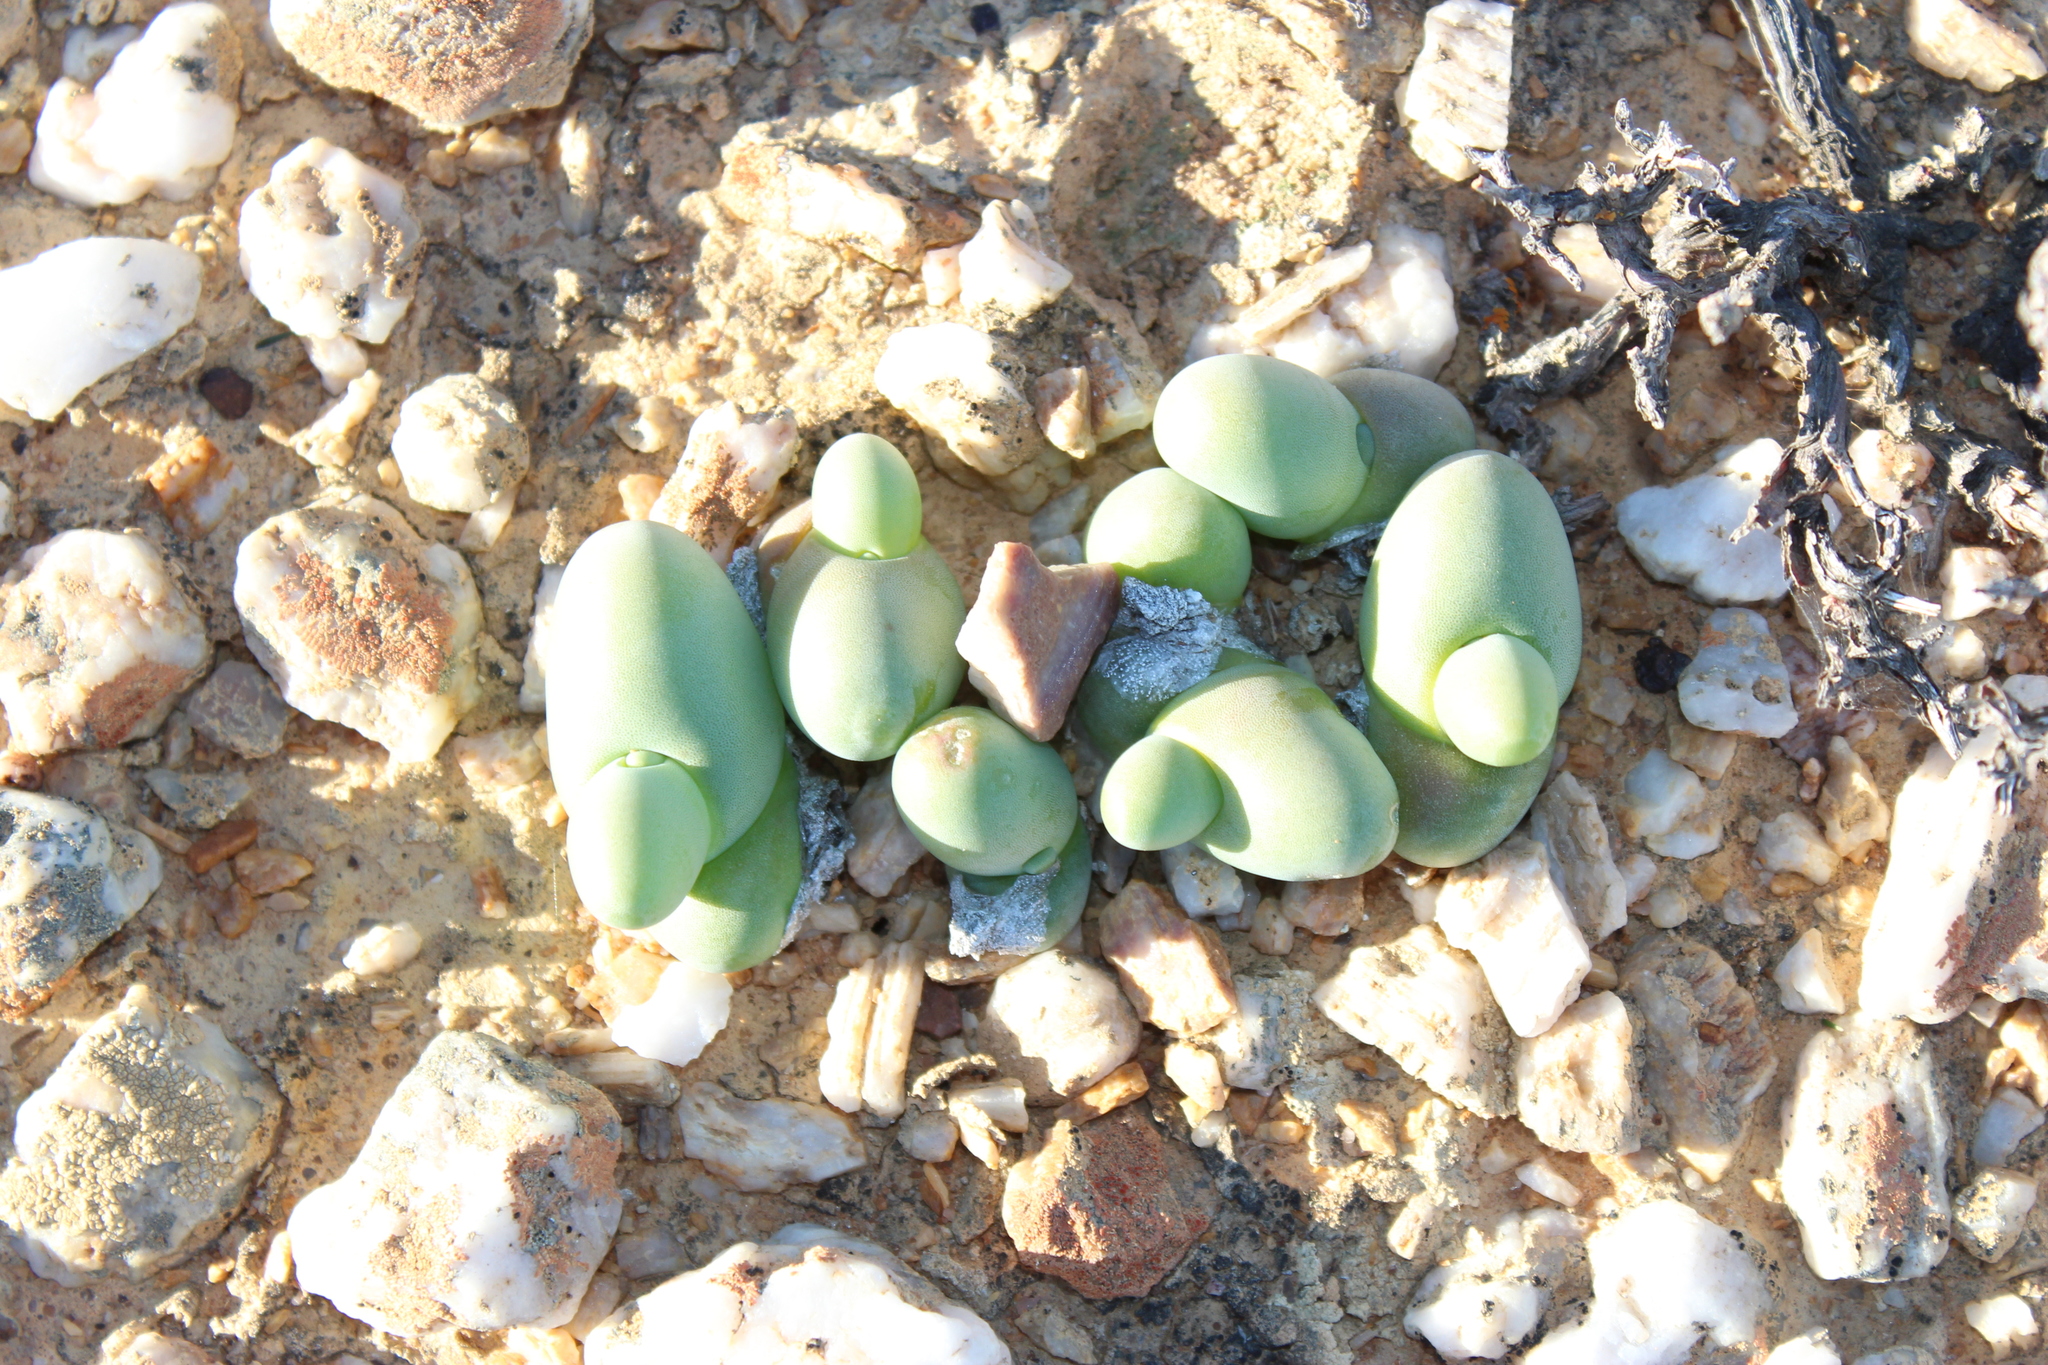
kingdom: Plantae
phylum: Tracheophyta
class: Magnoliopsida
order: Caryophyllales
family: Aizoaceae
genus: Mesembryanthemum
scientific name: Mesembryanthemum digitatum
